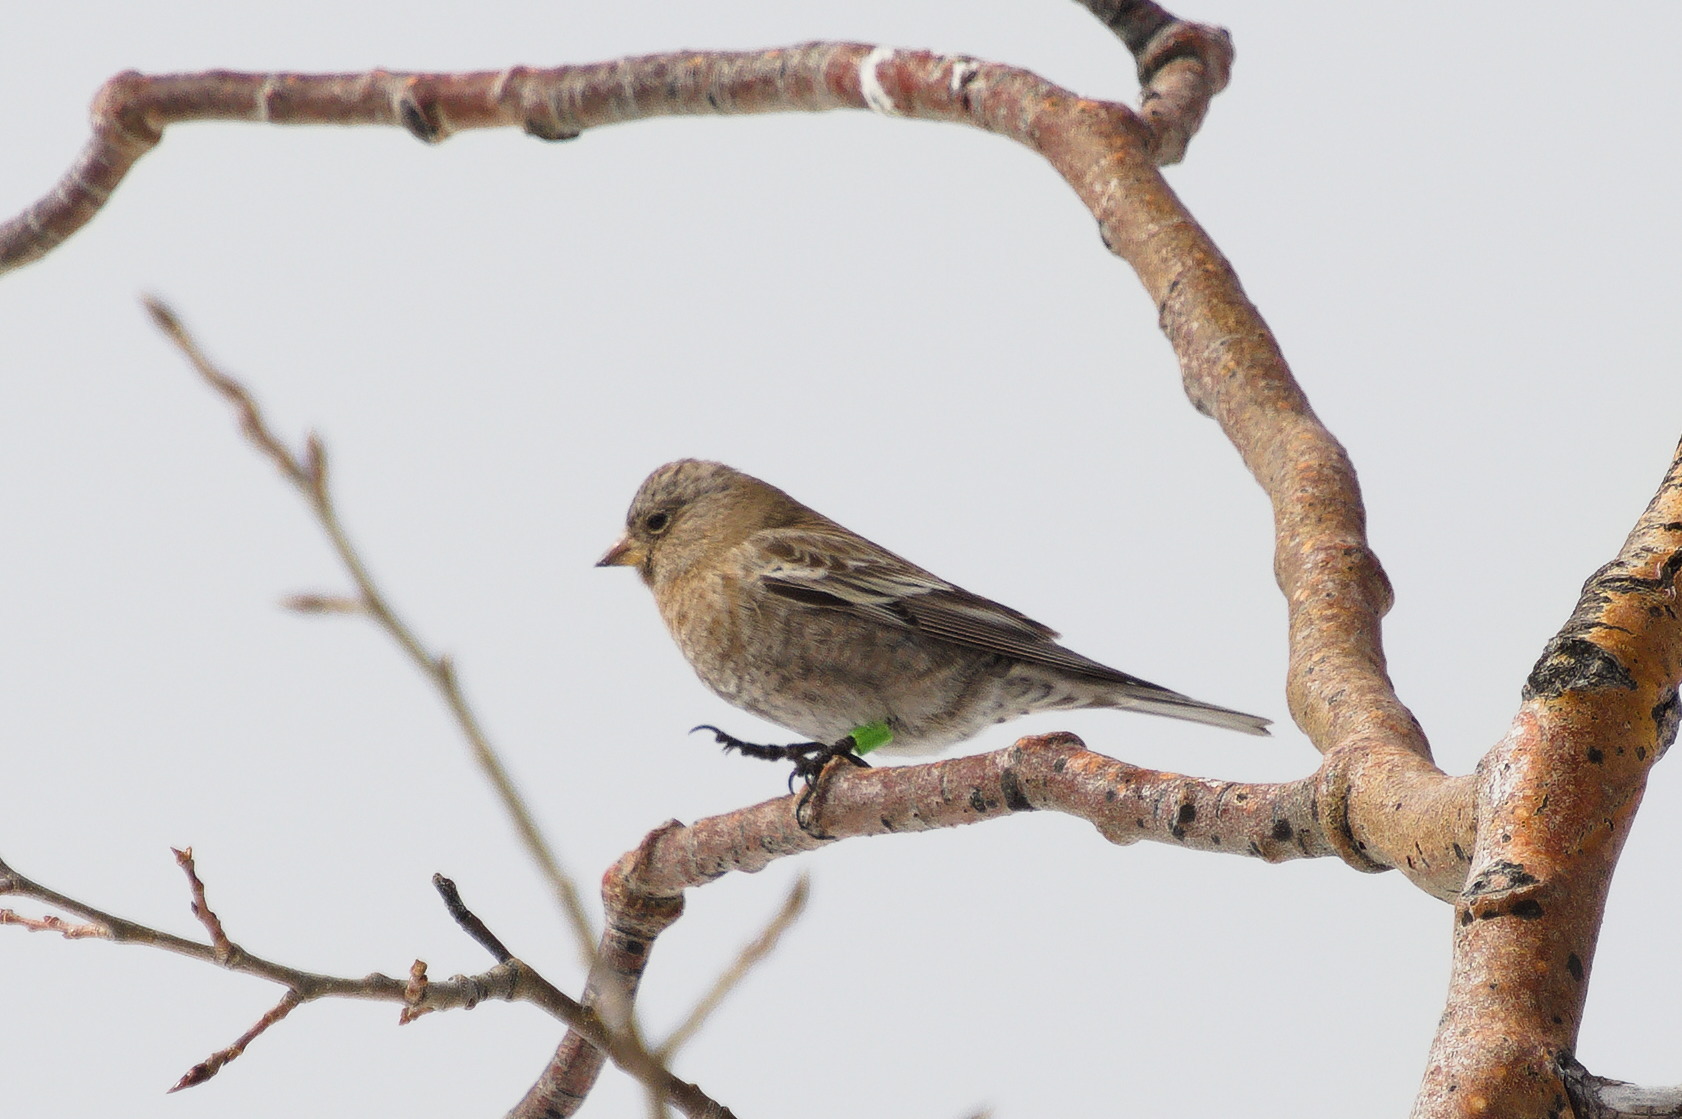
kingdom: Animalia
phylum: Chordata
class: Aves
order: Passeriformes
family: Fringillidae
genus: Leucosticte
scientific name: Leucosticte australis
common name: Brown-capped rosy-finch
